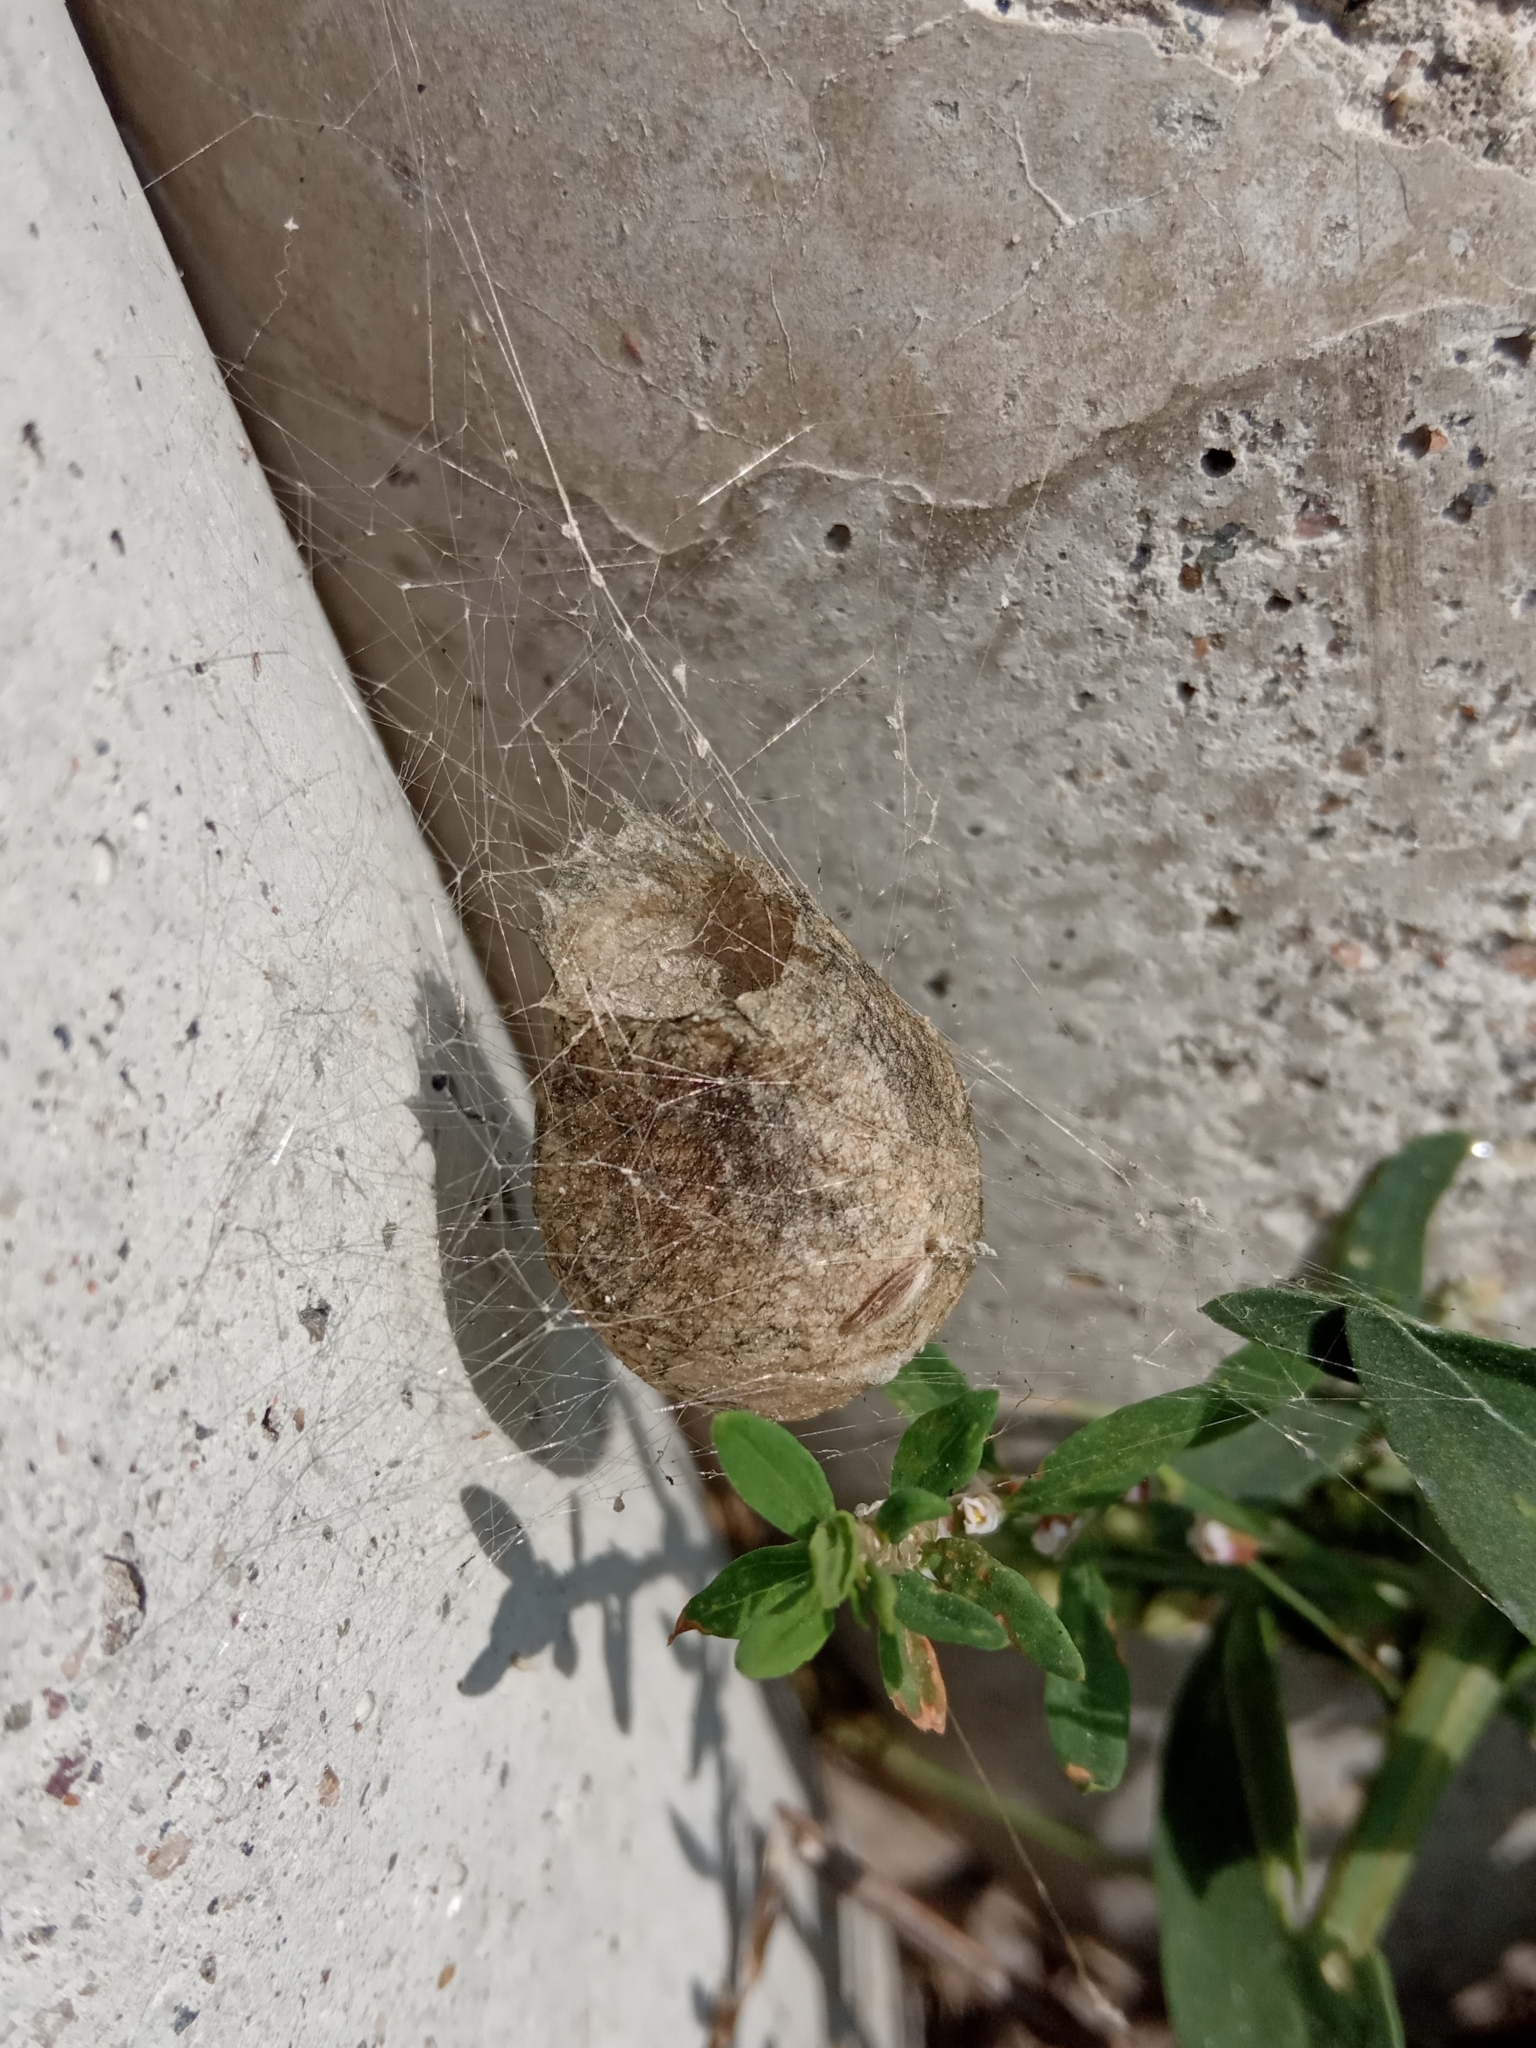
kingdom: Animalia
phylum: Arthropoda
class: Arachnida
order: Araneae
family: Araneidae
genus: Argiope
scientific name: Argiope bruennichi
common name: Wasp spider
